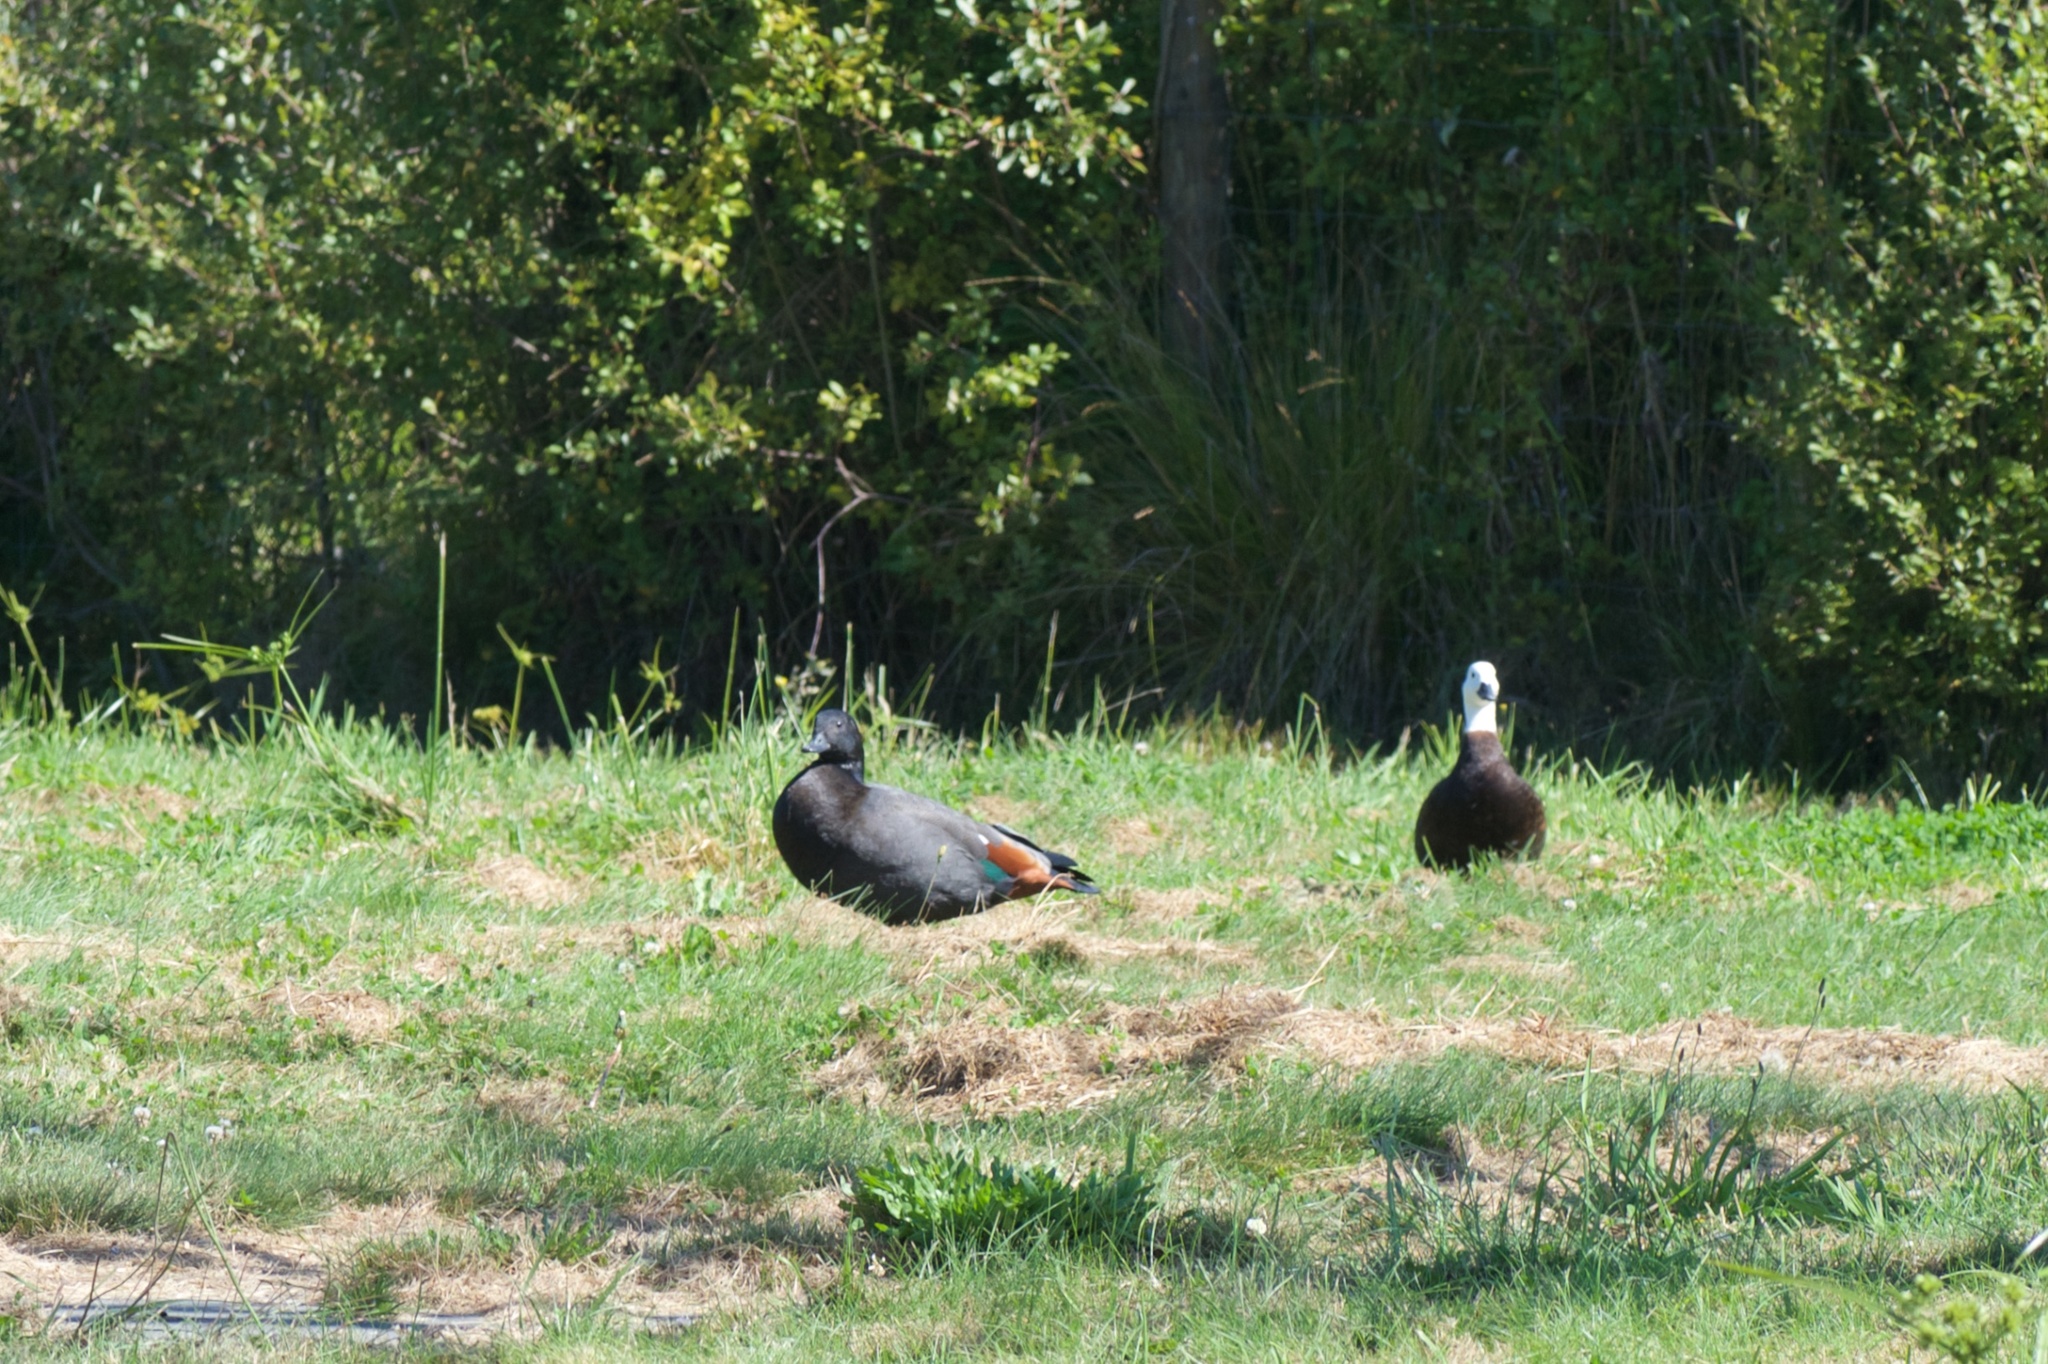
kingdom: Animalia
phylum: Chordata
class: Aves
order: Anseriformes
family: Anatidae
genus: Tadorna
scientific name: Tadorna variegata
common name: Paradise shelduck
